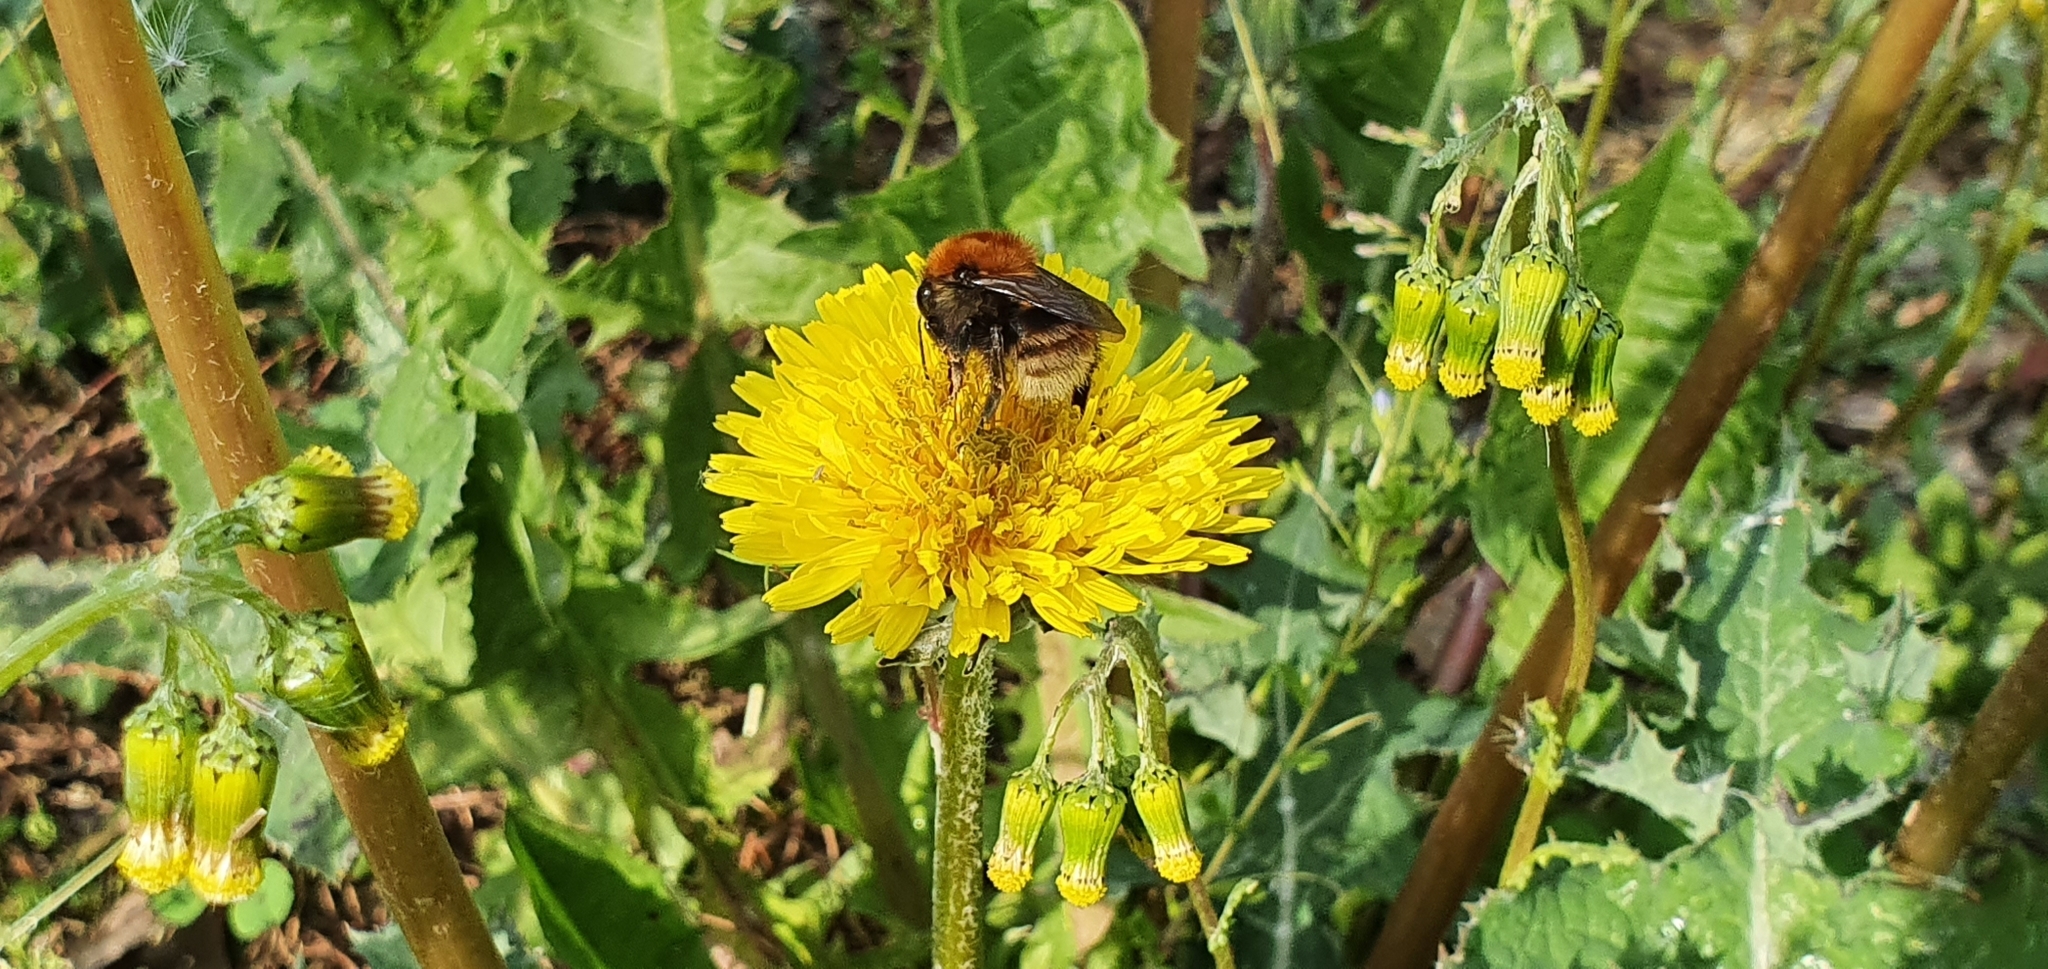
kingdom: Animalia
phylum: Arthropoda
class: Insecta
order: Hymenoptera
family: Apidae
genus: Bombus
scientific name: Bombus humilis
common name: Brown-banded carder-bee
